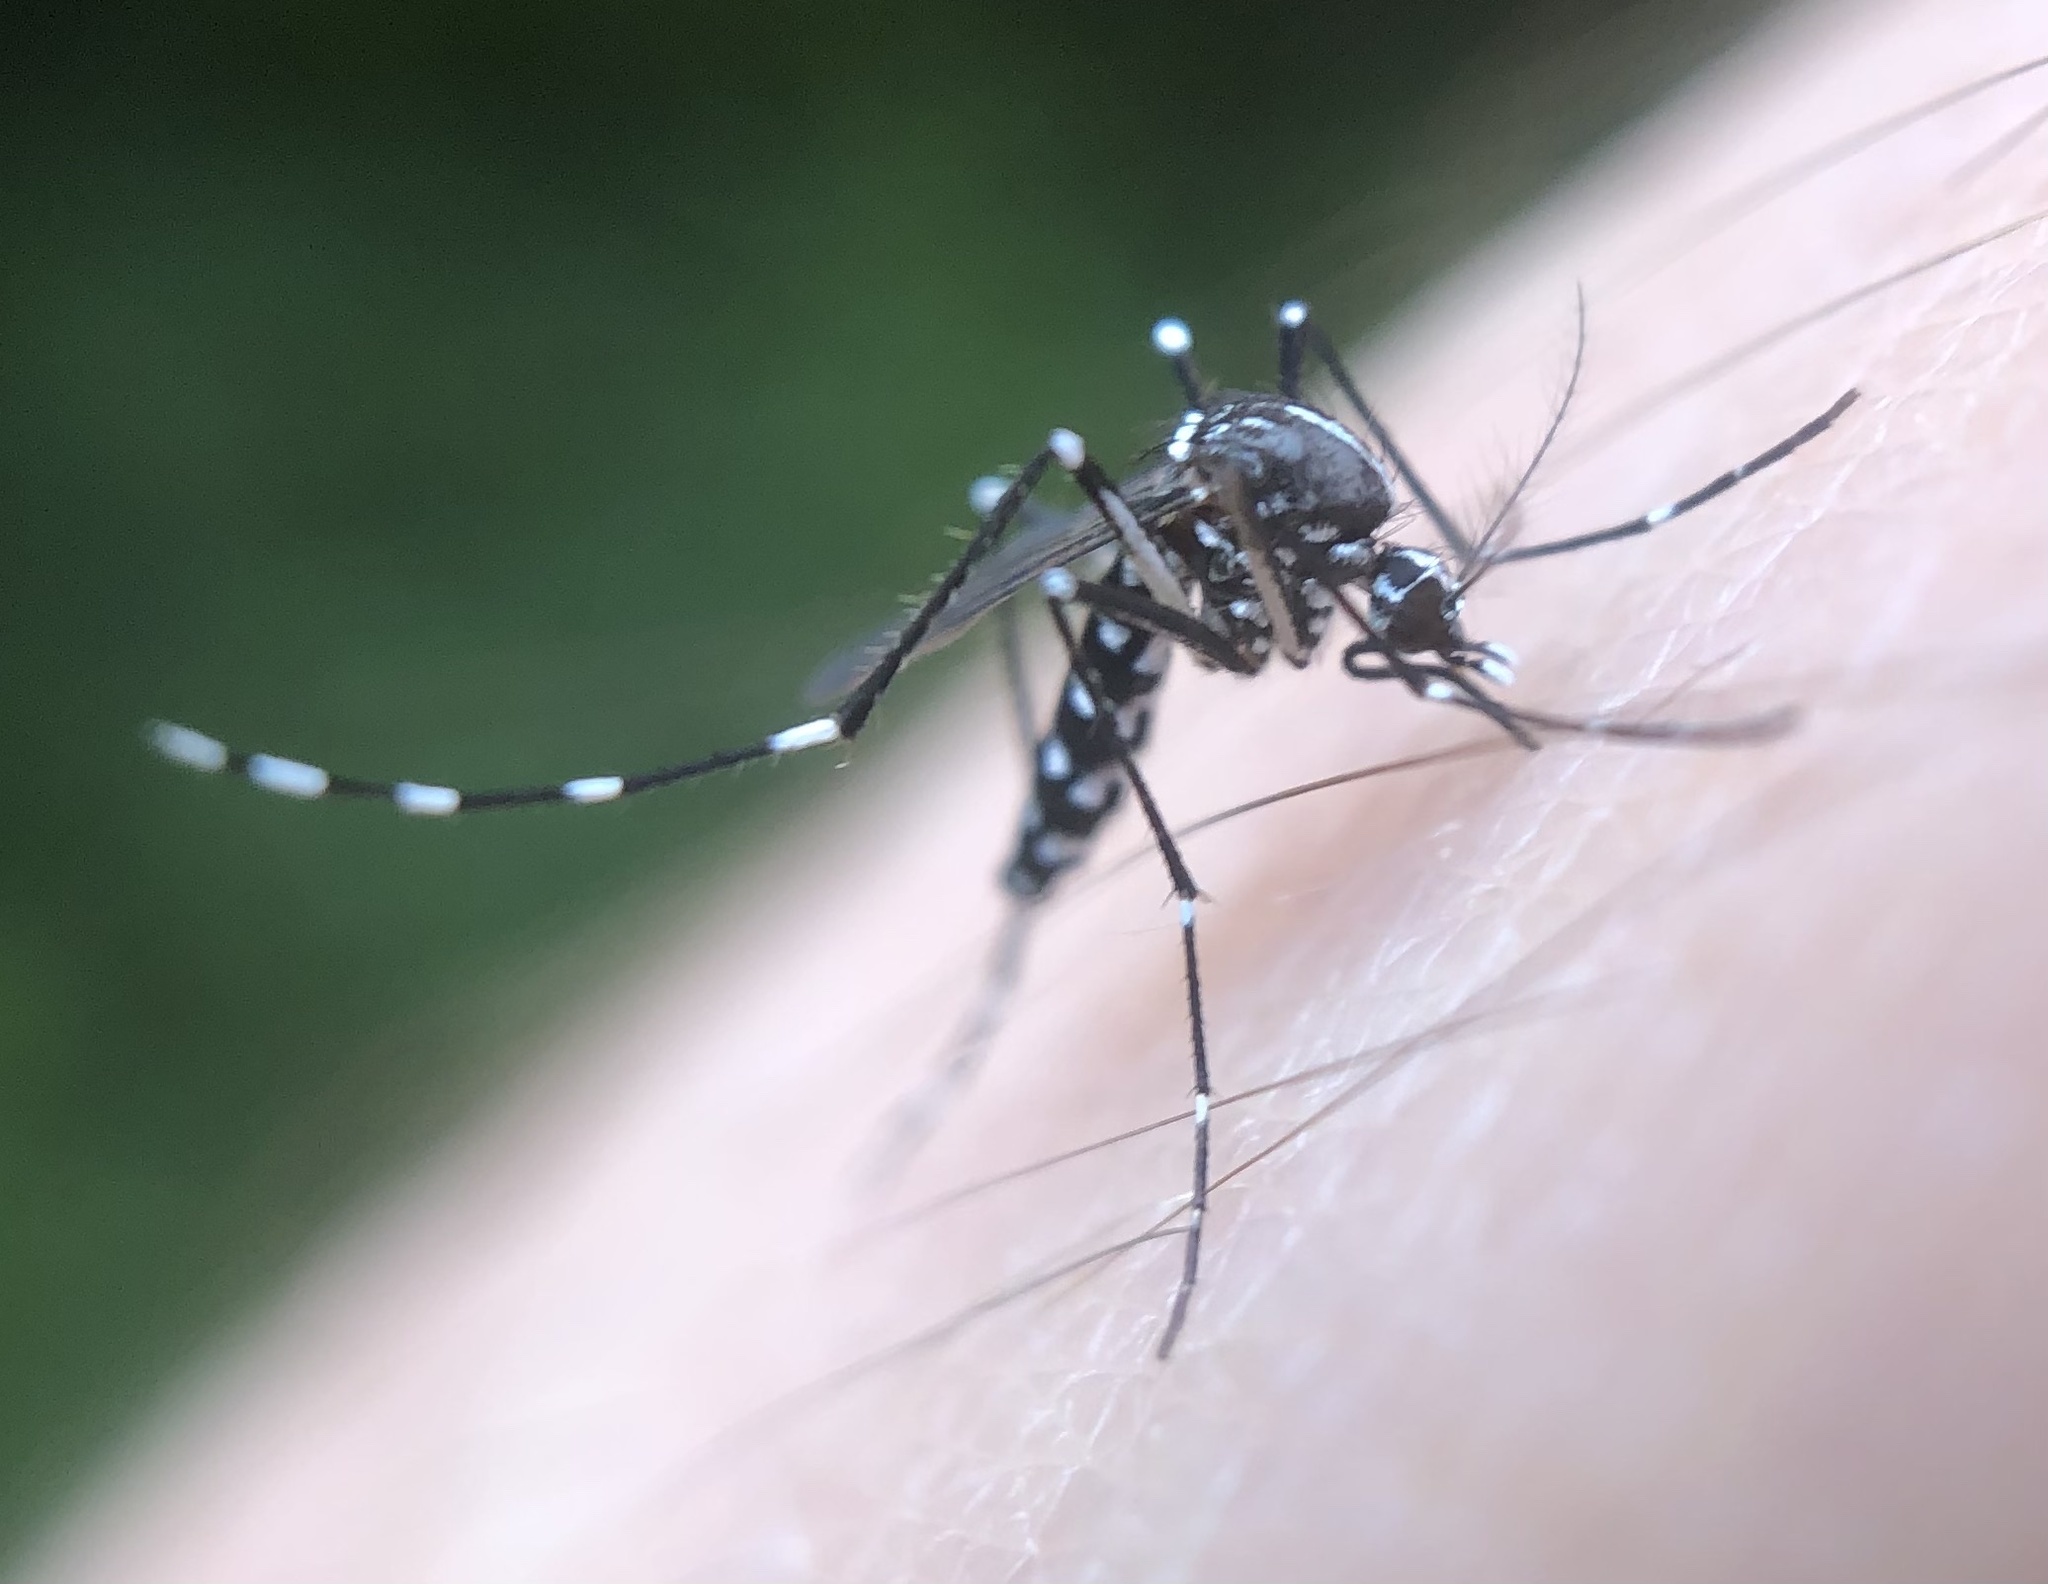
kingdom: Animalia
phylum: Arthropoda
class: Insecta
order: Diptera
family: Culicidae
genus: Aedes
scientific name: Aedes albopictus
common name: Tiger mosquito
